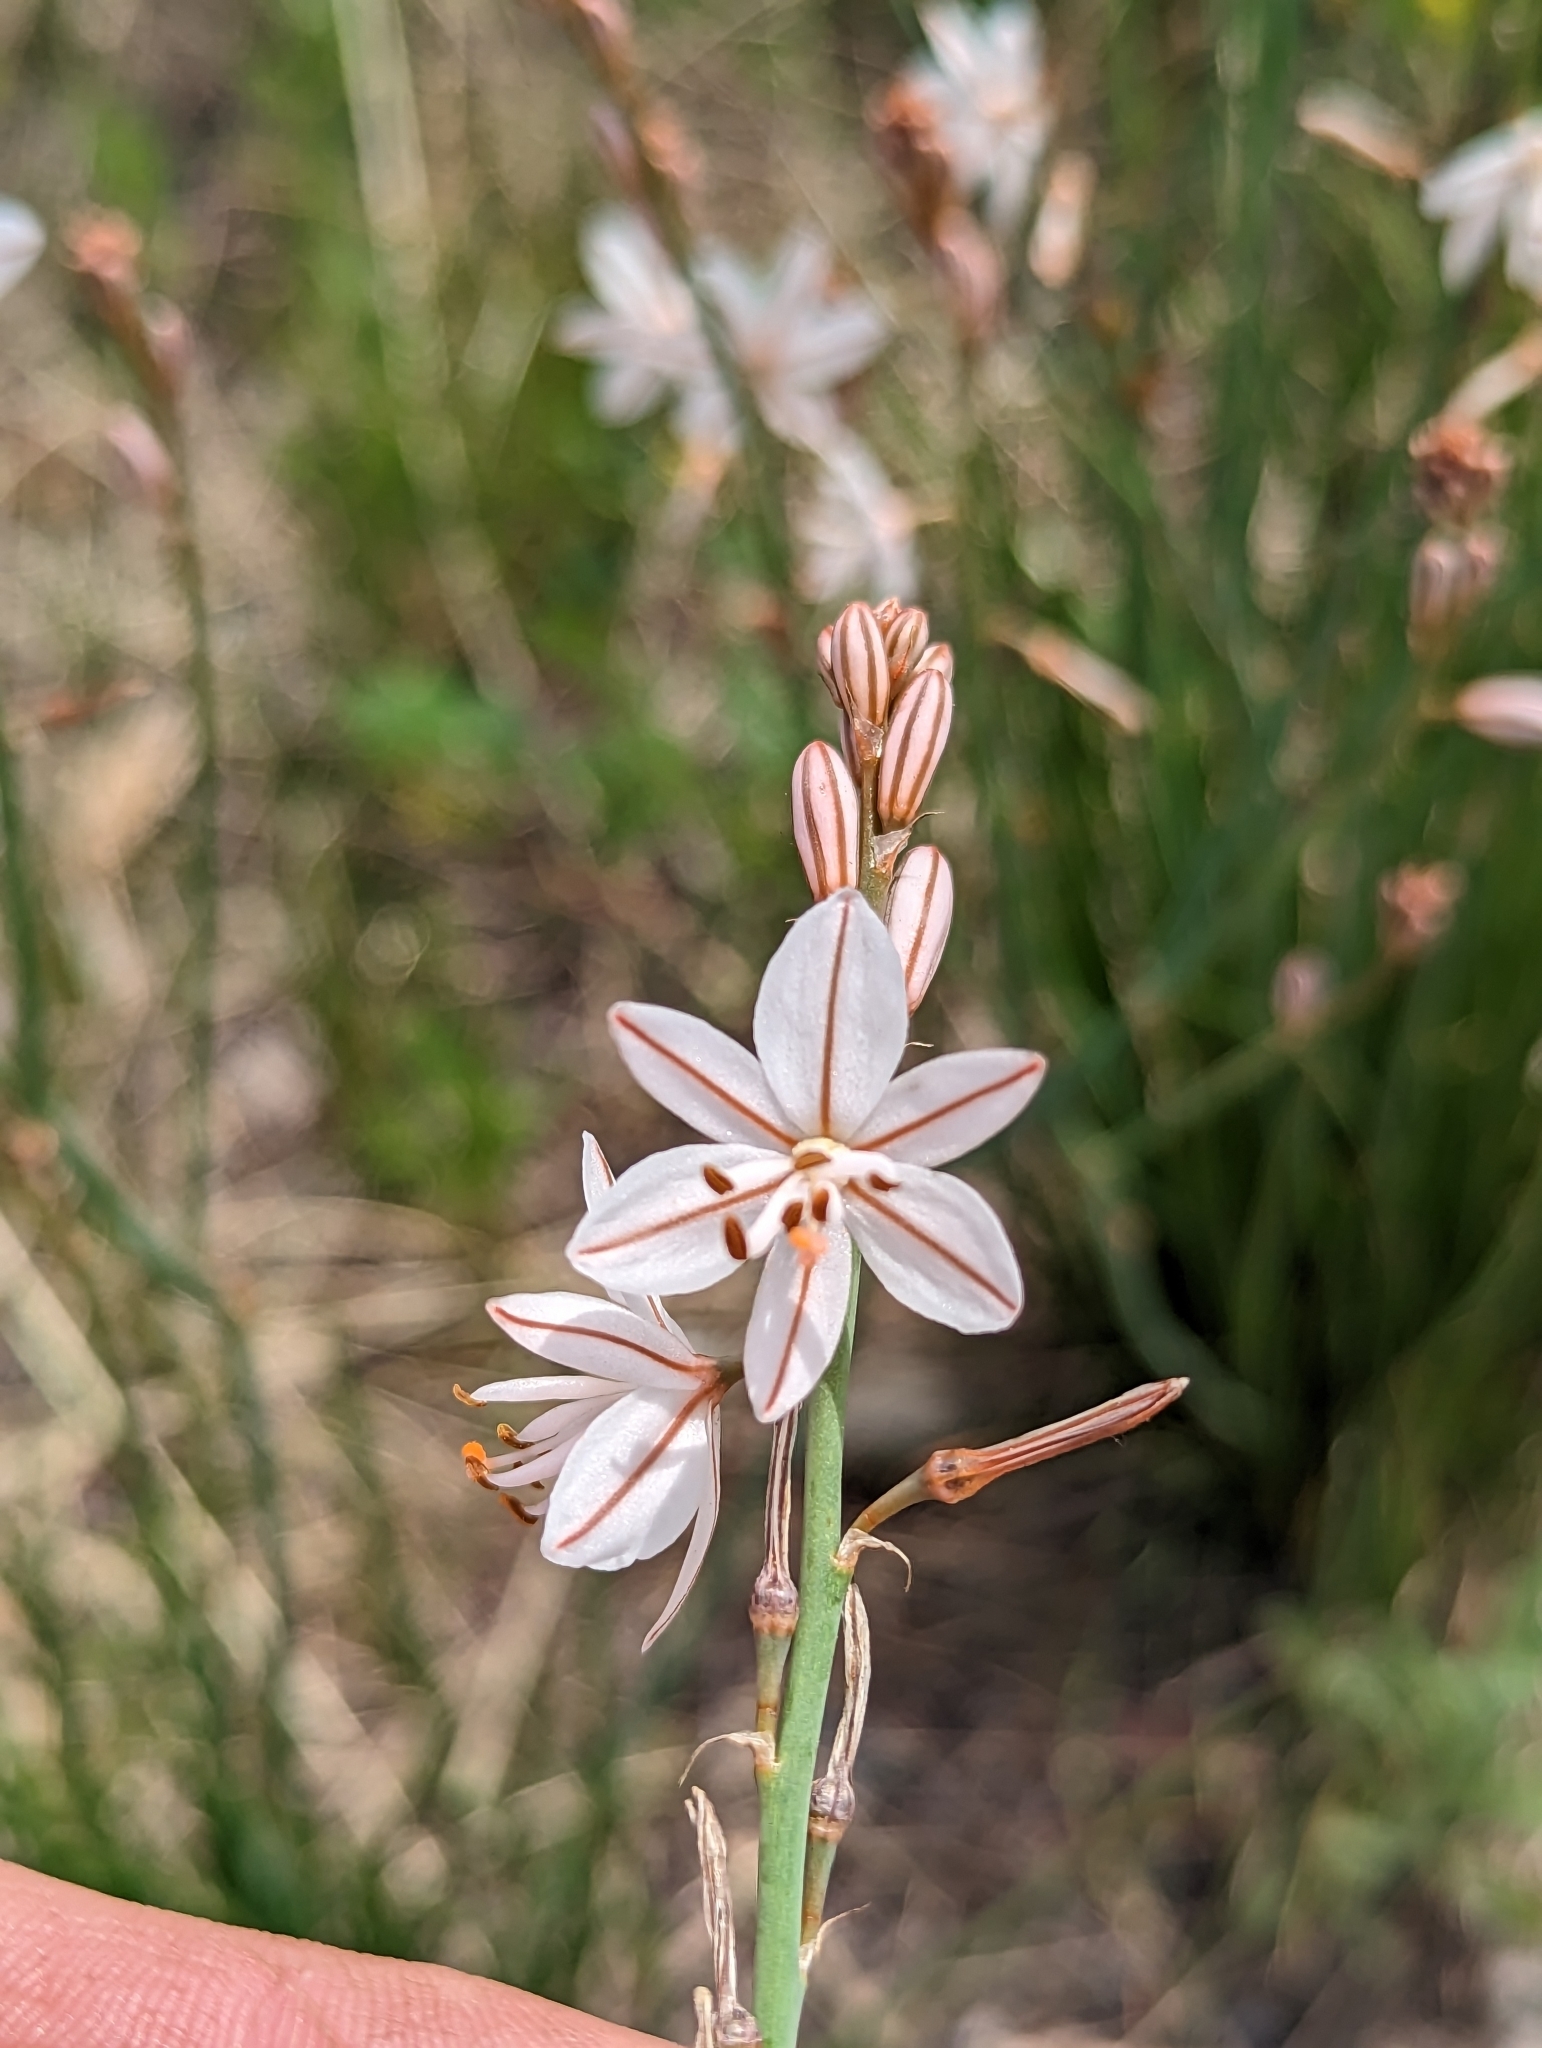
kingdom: Plantae
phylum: Tracheophyta
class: Liliopsida
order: Asparagales
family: Asphodelaceae
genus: Asphodelus
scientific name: Asphodelus fistulosus
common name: Onionweed
